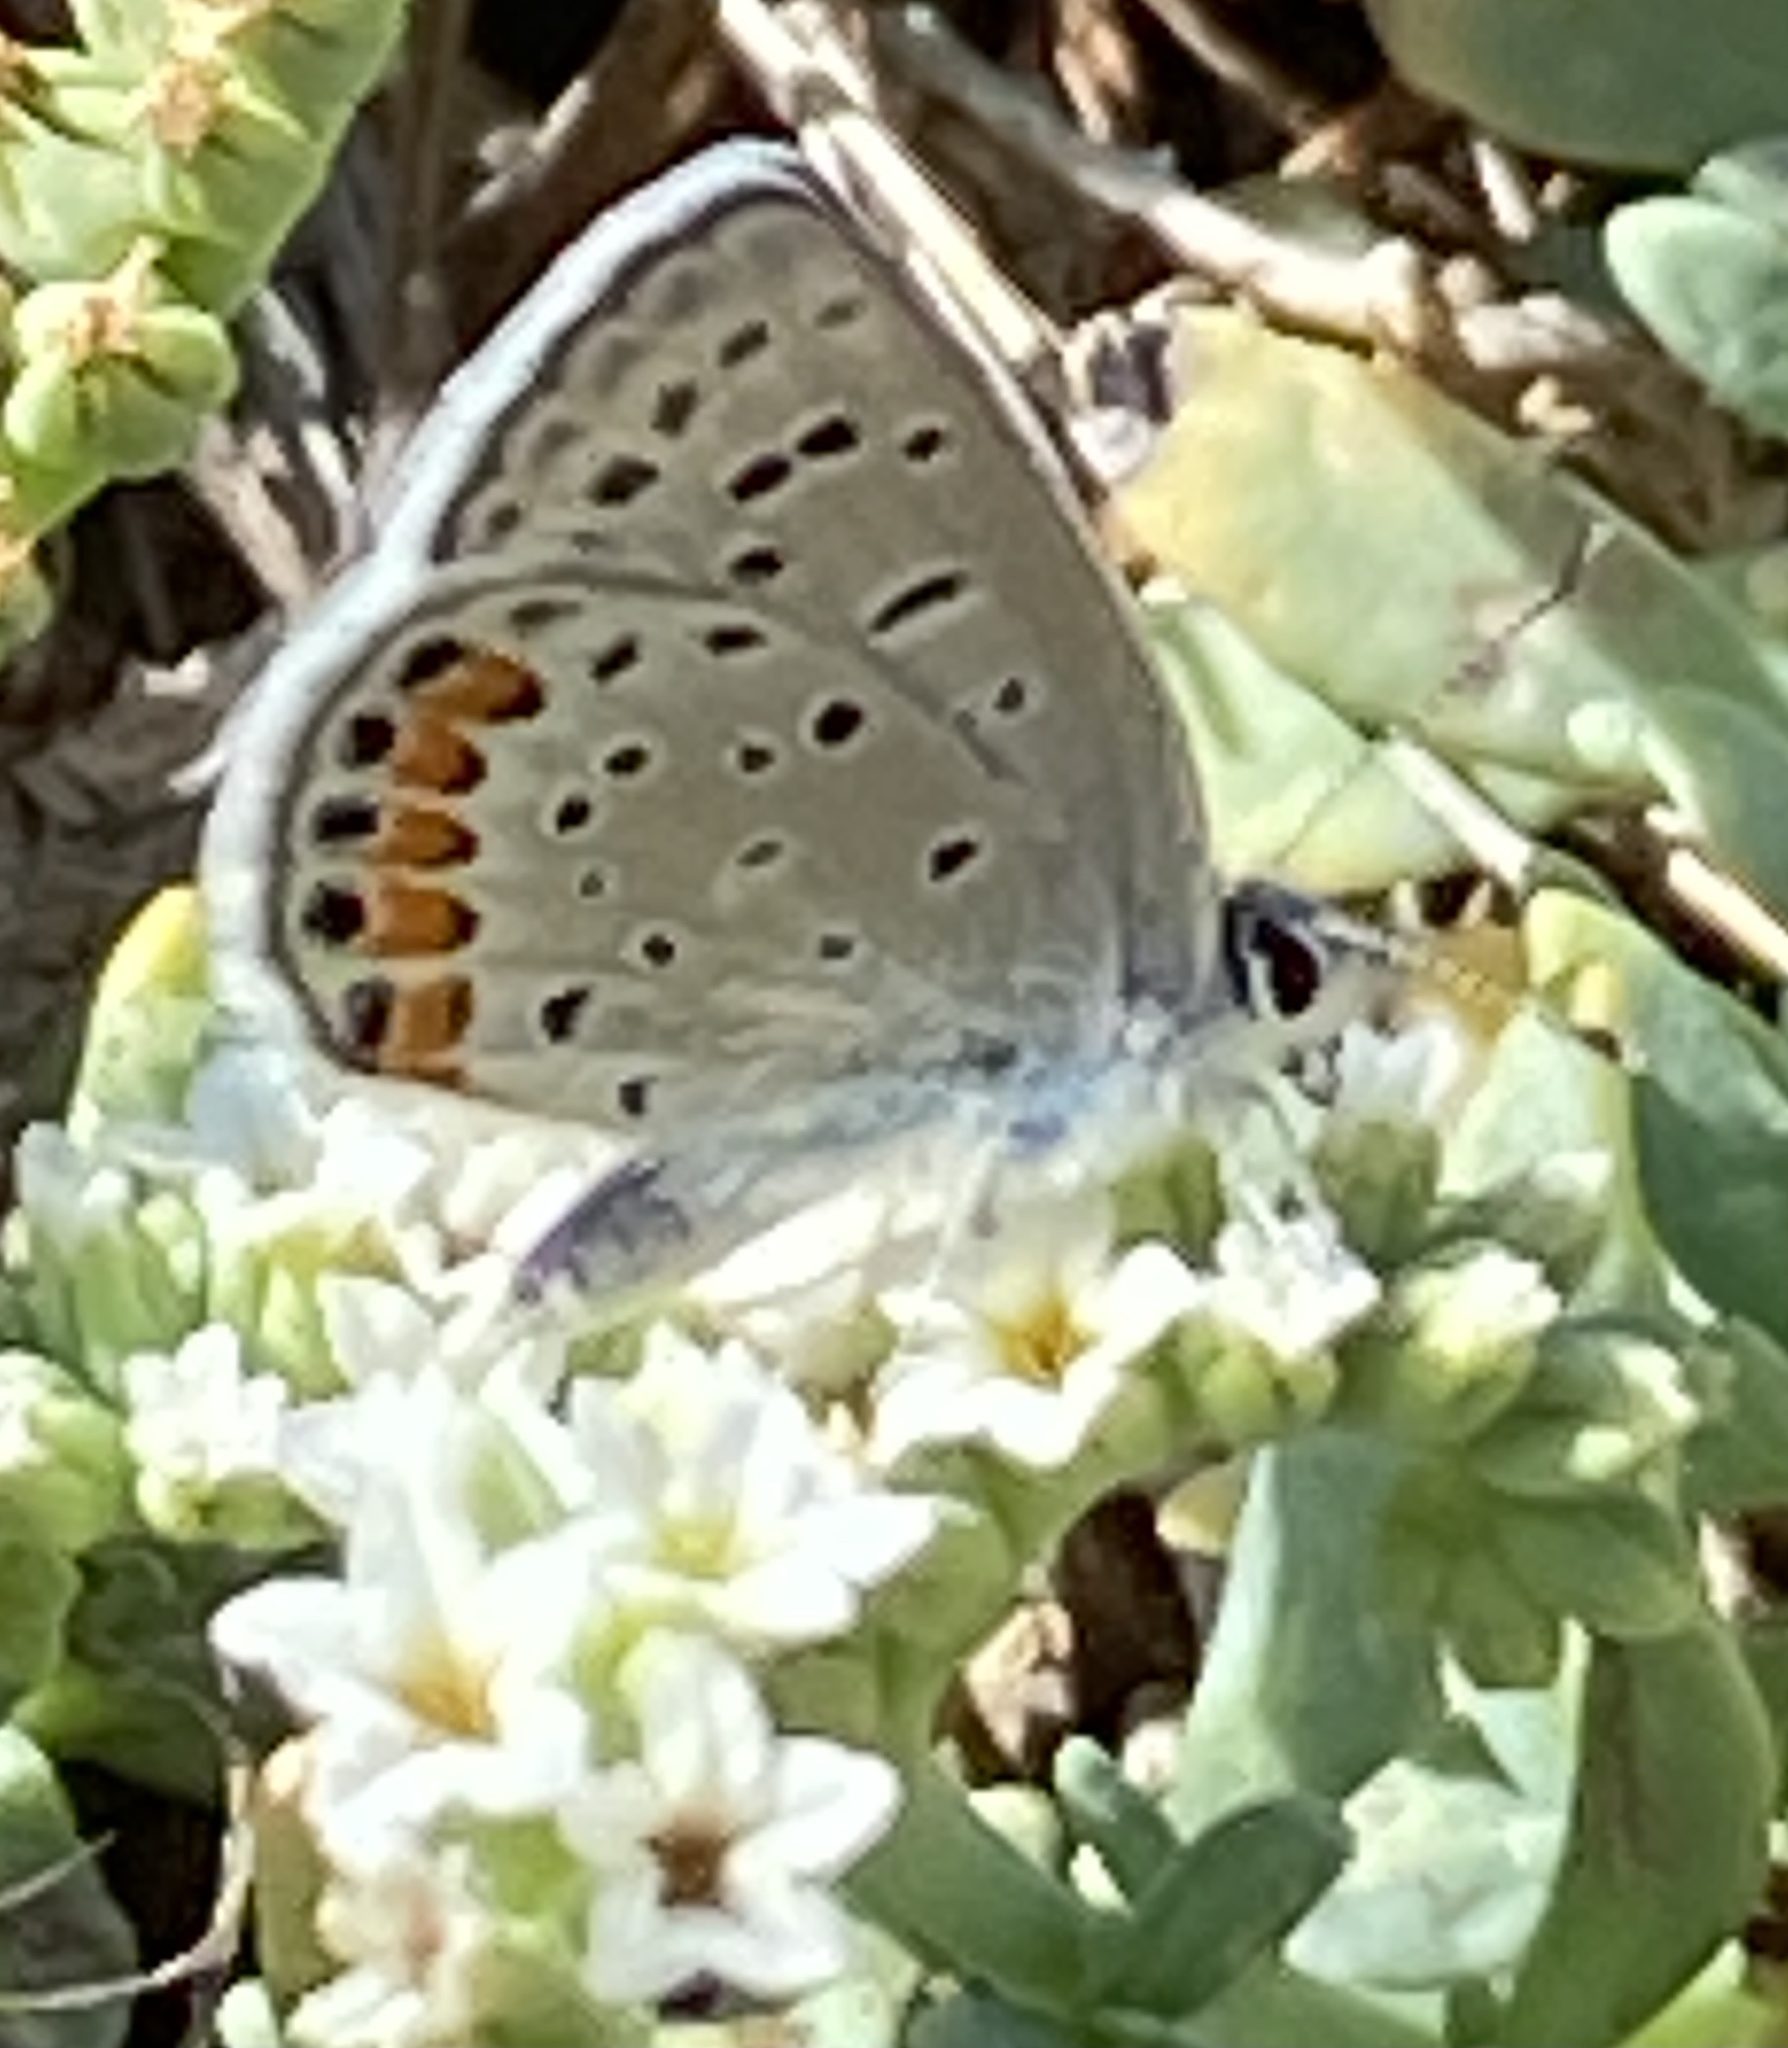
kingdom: Animalia
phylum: Arthropoda
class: Insecta
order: Lepidoptera
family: Lycaenidae
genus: Icaricia
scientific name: Icaricia acmon
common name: Acmon blue
